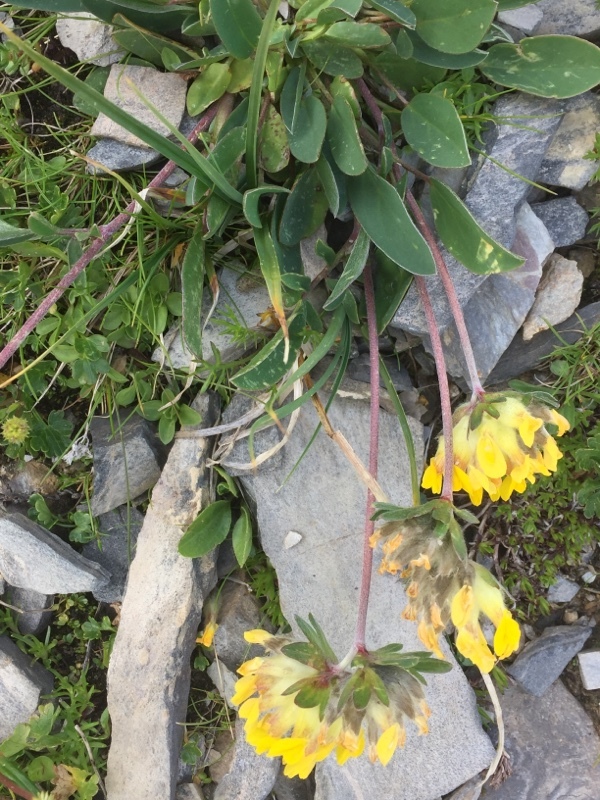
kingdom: Plantae
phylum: Tracheophyta
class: Magnoliopsida
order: Fabales
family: Fabaceae
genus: Anthyllis
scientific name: Anthyllis vulneraria
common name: Kidney vetch
